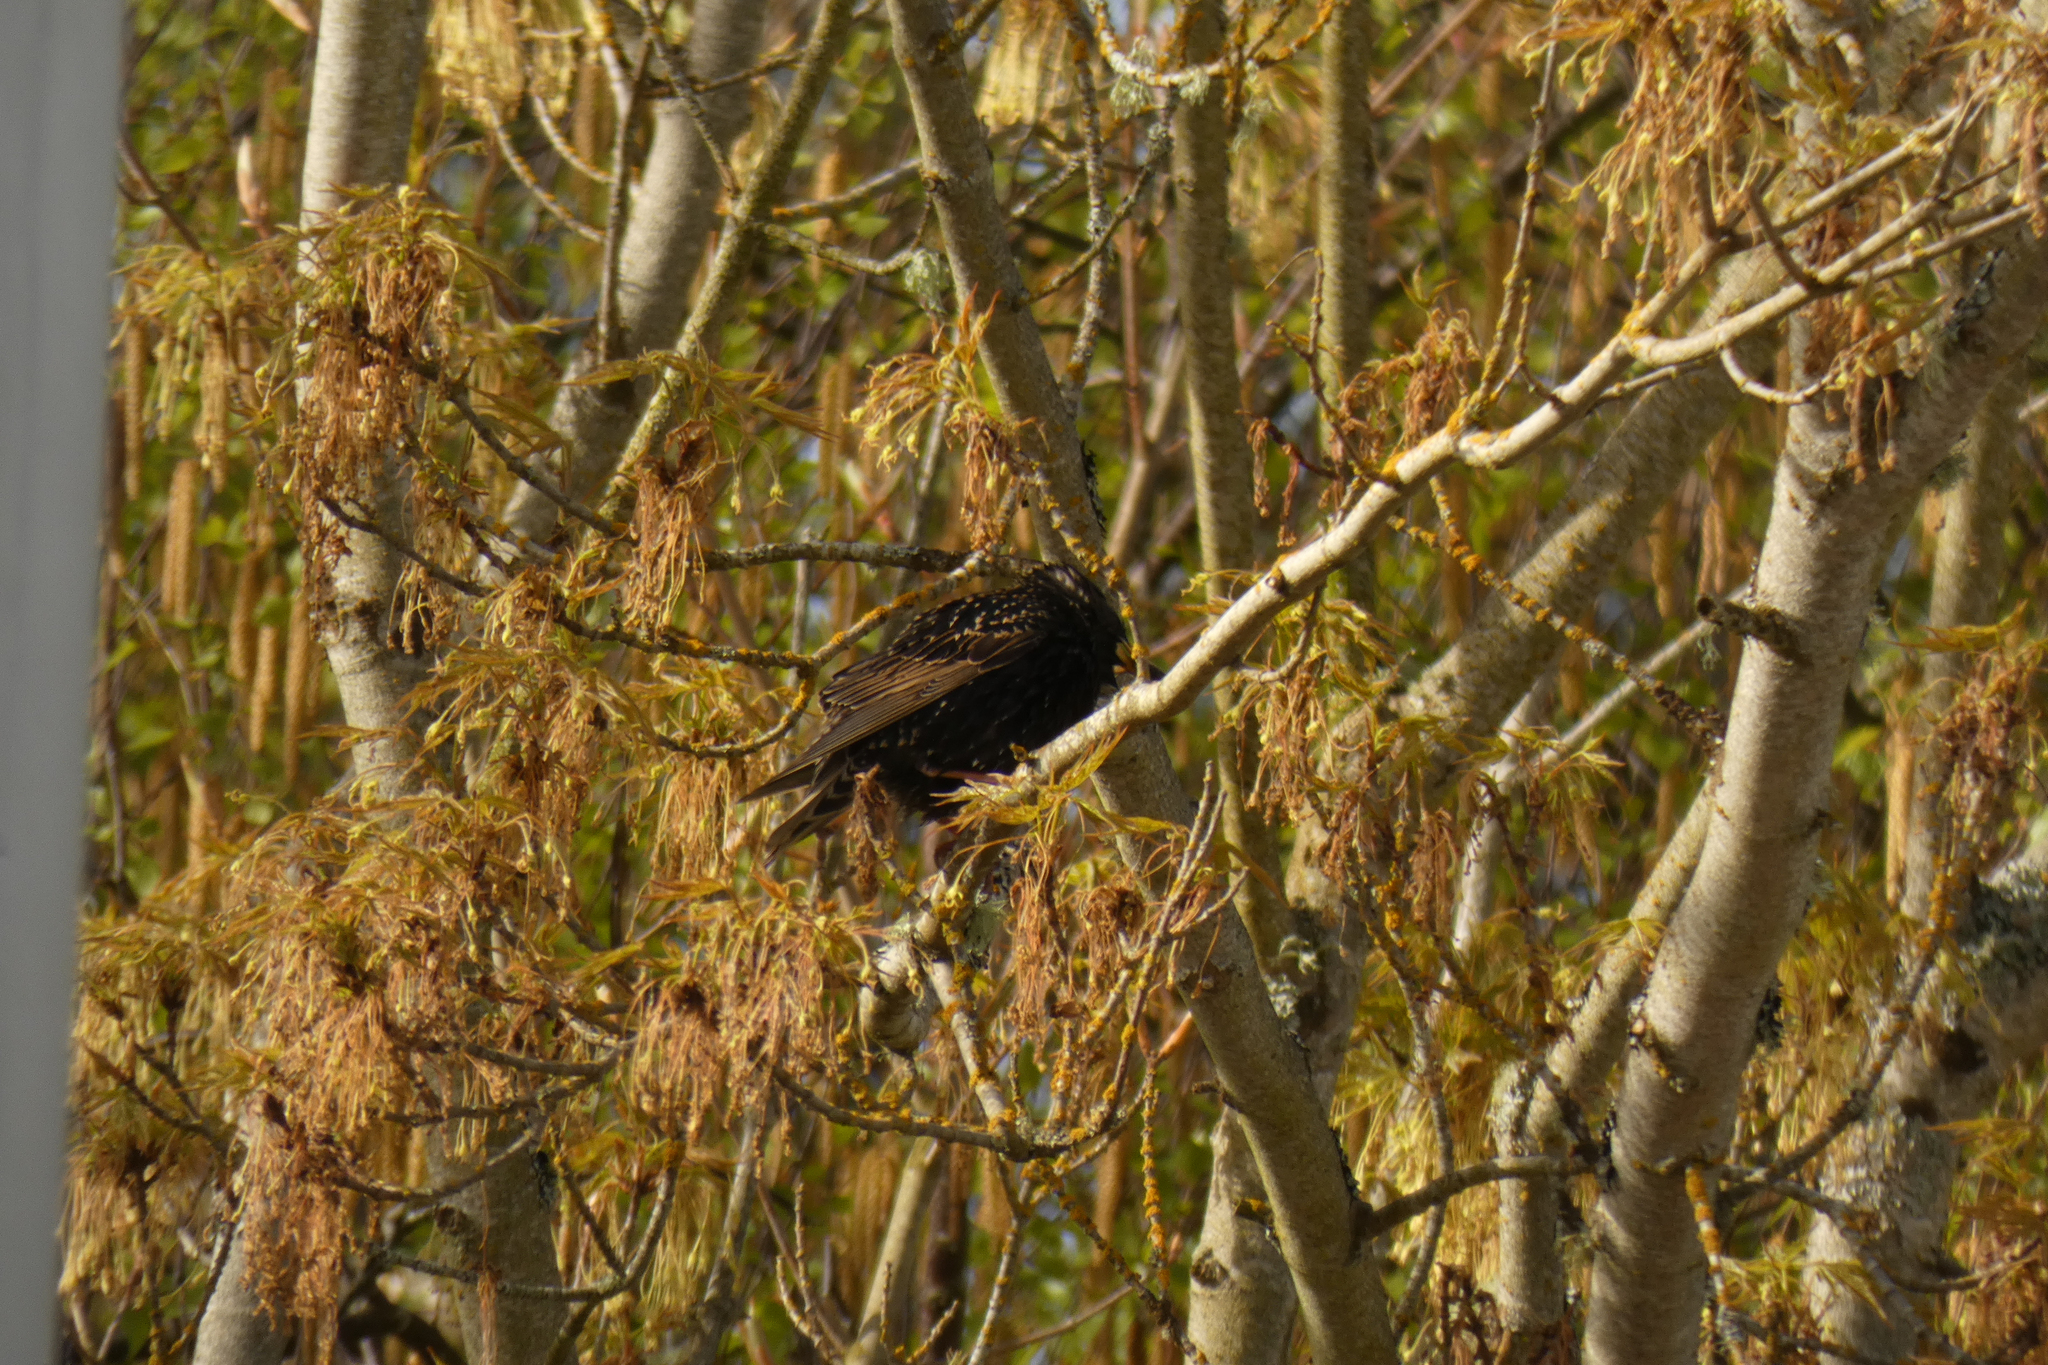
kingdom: Animalia
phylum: Chordata
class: Aves
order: Passeriformes
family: Sturnidae
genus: Sturnus
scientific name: Sturnus vulgaris
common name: Common starling
